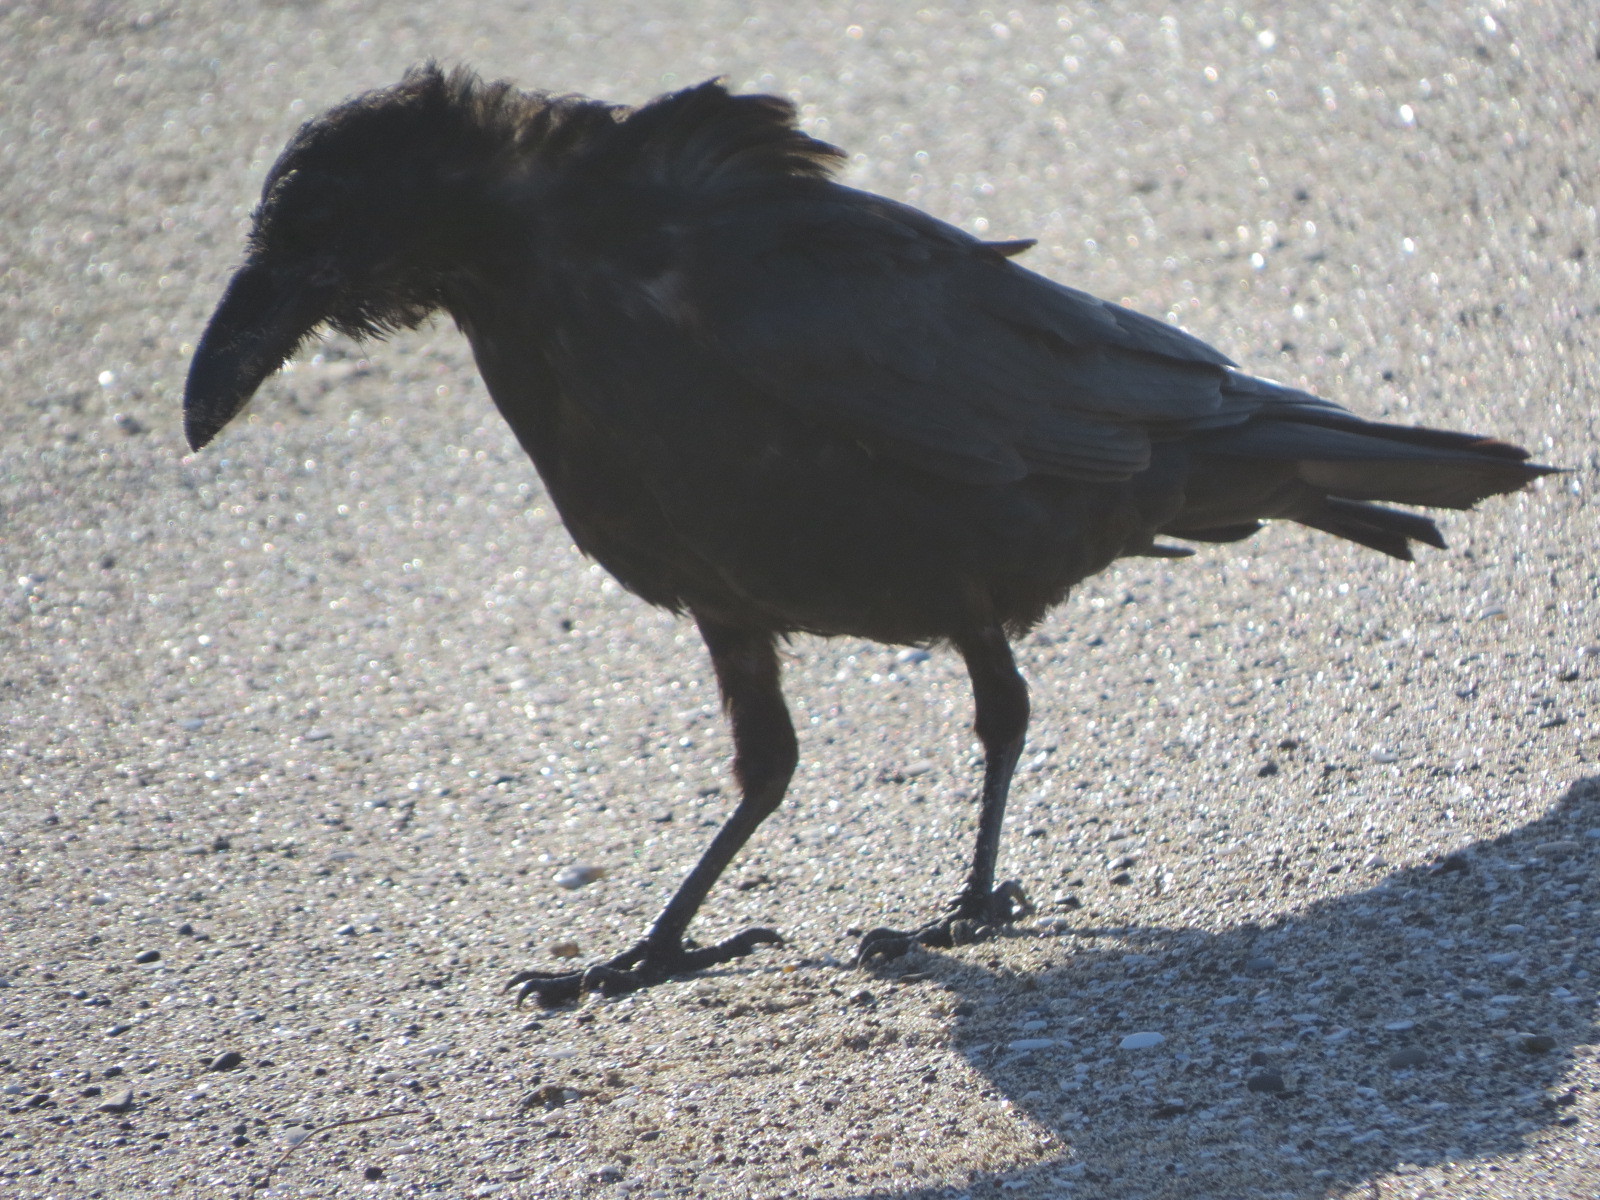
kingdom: Animalia
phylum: Chordata
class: Aves
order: Passeriformes
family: Corvidae
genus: Corvus
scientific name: Corvus corax
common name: Common raven
